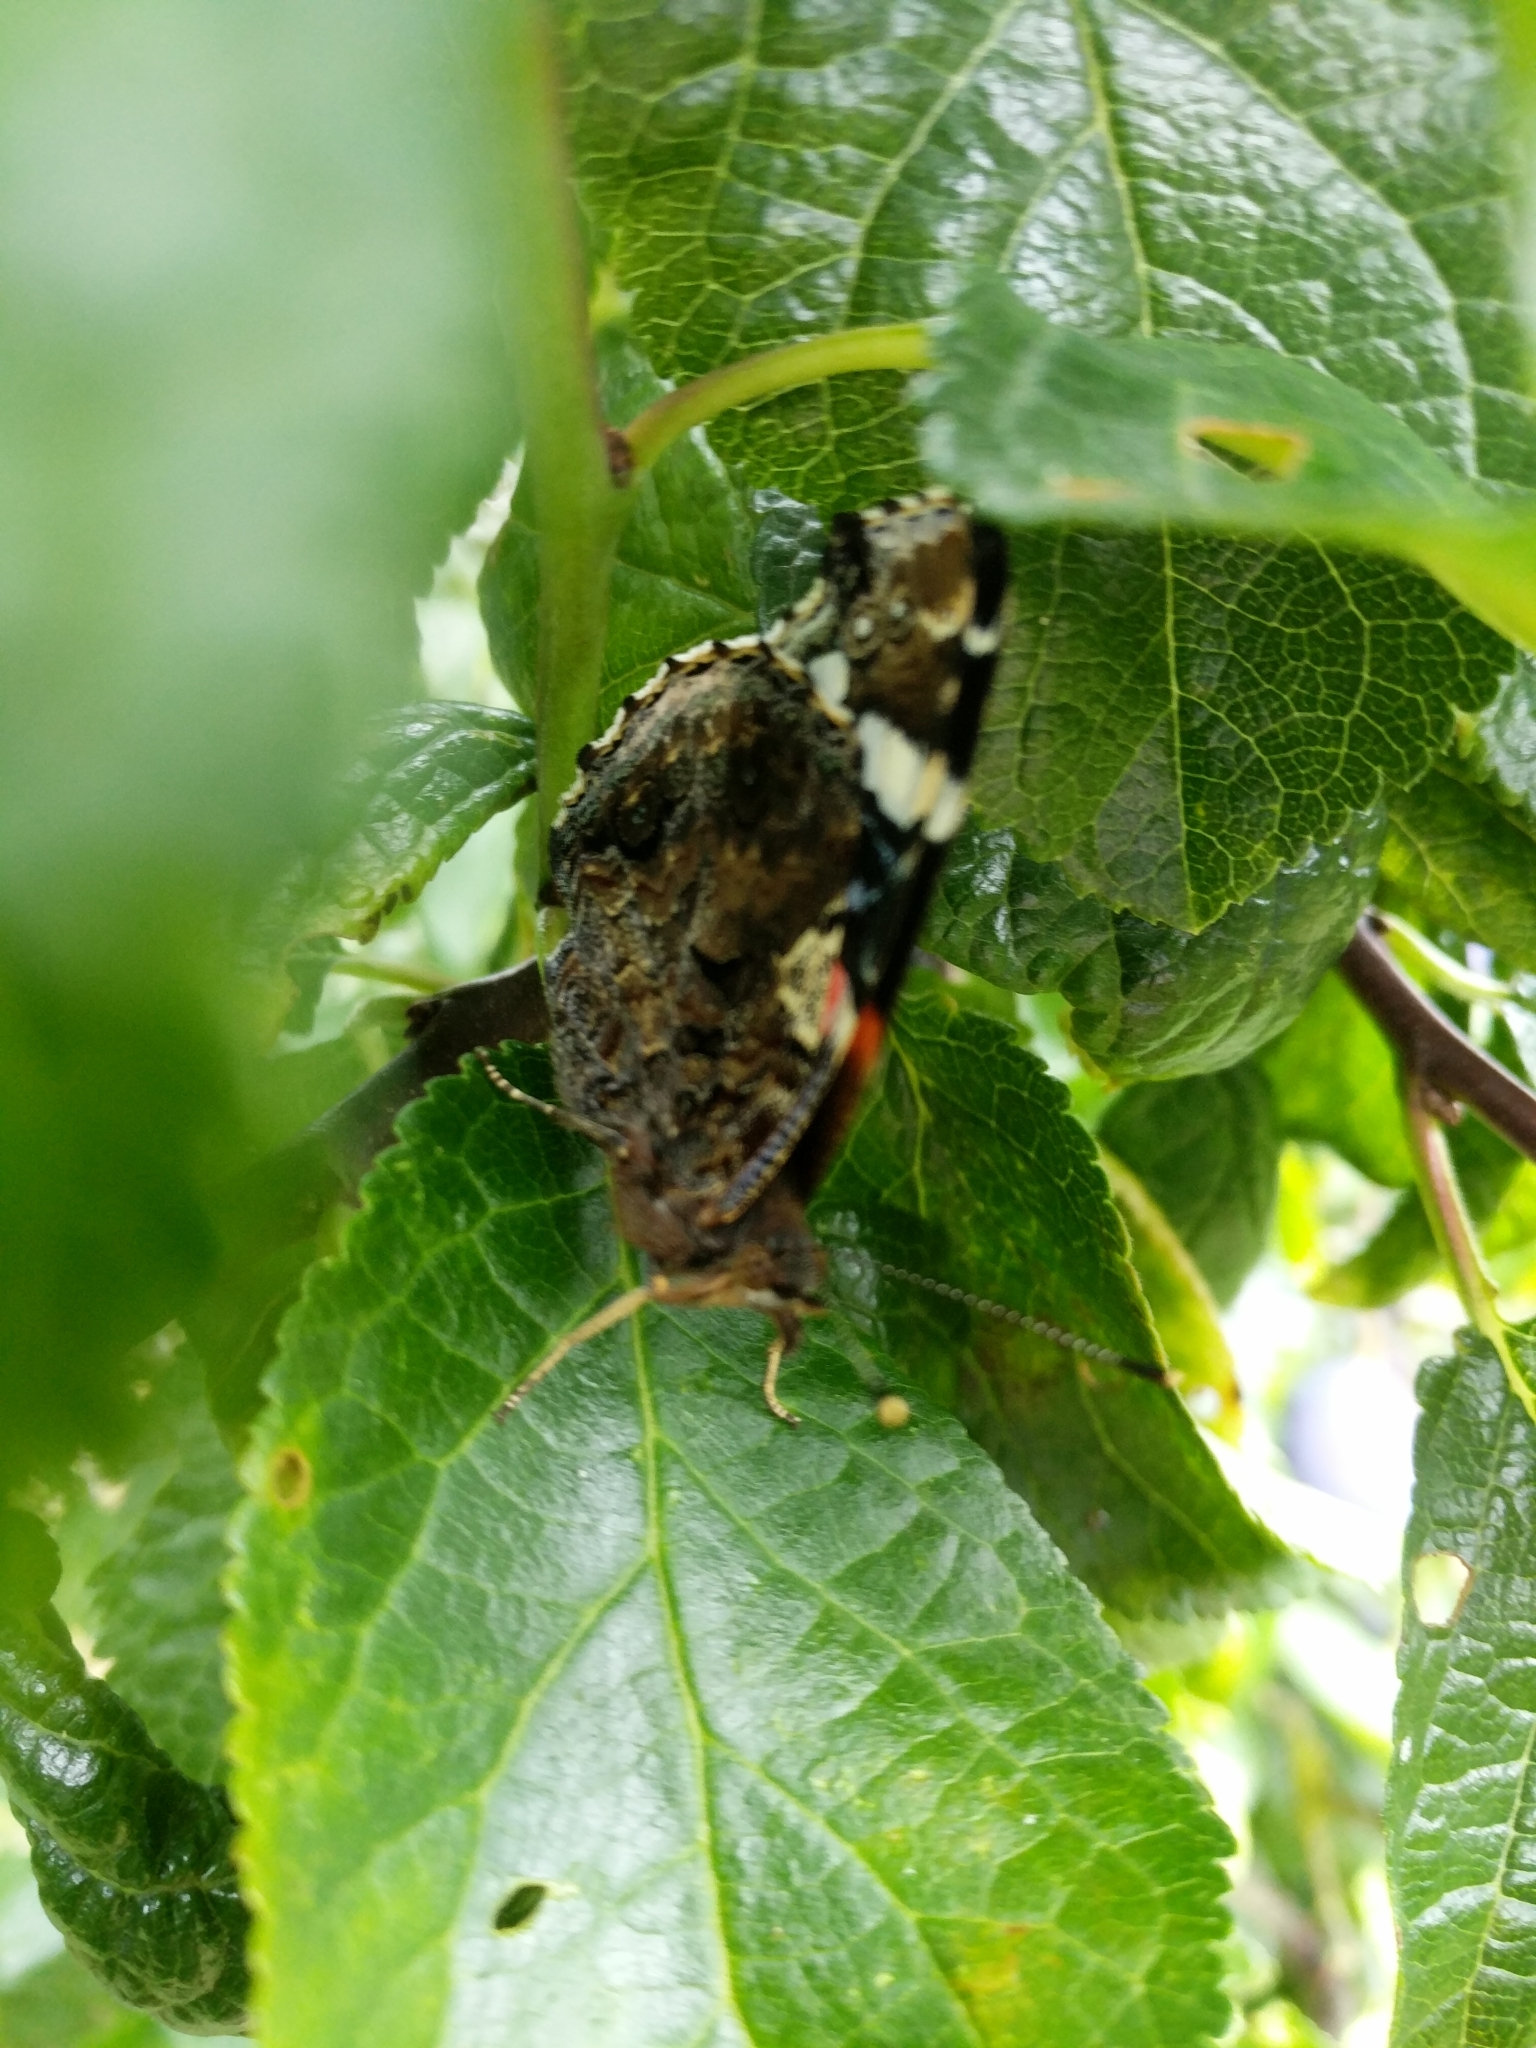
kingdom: Animalia
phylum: Arthropoda
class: Insecta
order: Lepidoptera
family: Nymphalidae
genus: Vanessa
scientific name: Vanessa atalanta
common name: Red admiral
